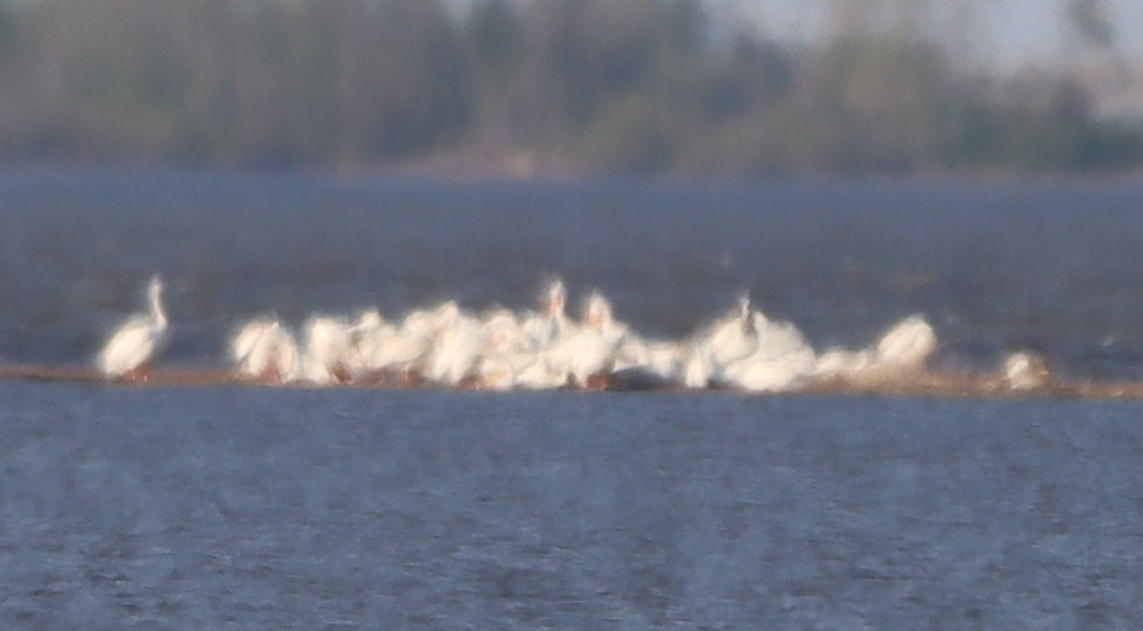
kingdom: Animalia
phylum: Chordata
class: Aves
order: Pelecaniformes
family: Pelecanidae
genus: Pelecanus
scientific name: Pelecanus erythrorhynchos
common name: American white pelican
